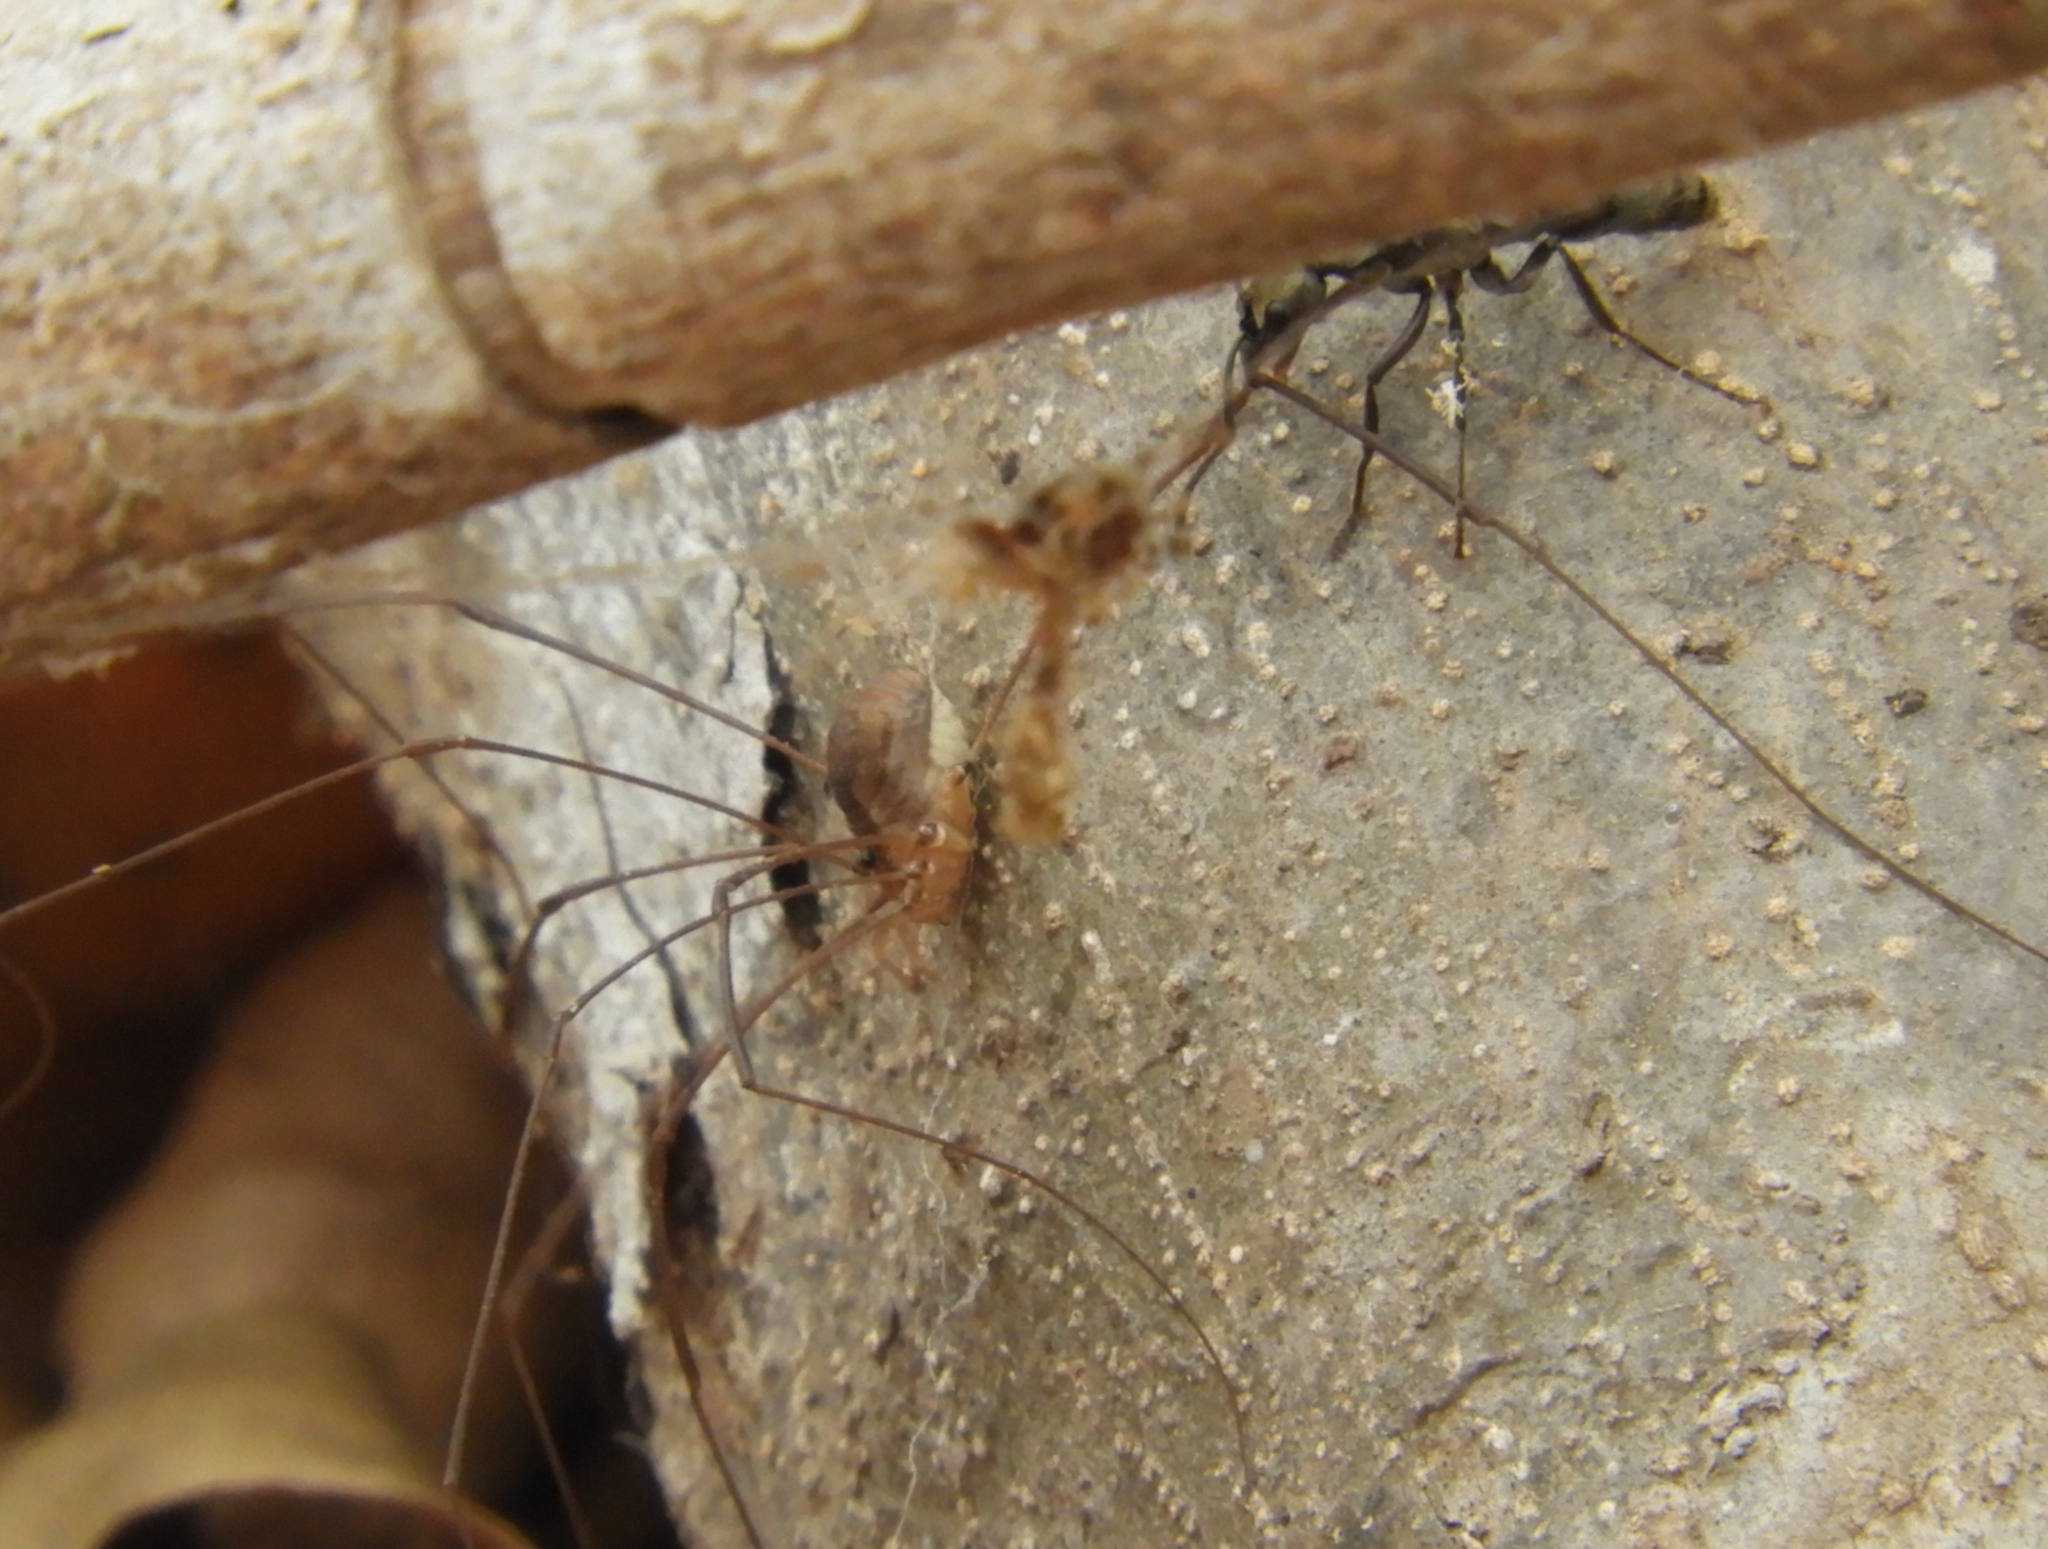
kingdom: Animalia
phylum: Arthropoda
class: Insecta
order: Hymenoptera
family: Formicidae
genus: Pachycondyla
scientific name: Pachycondyla villosa
